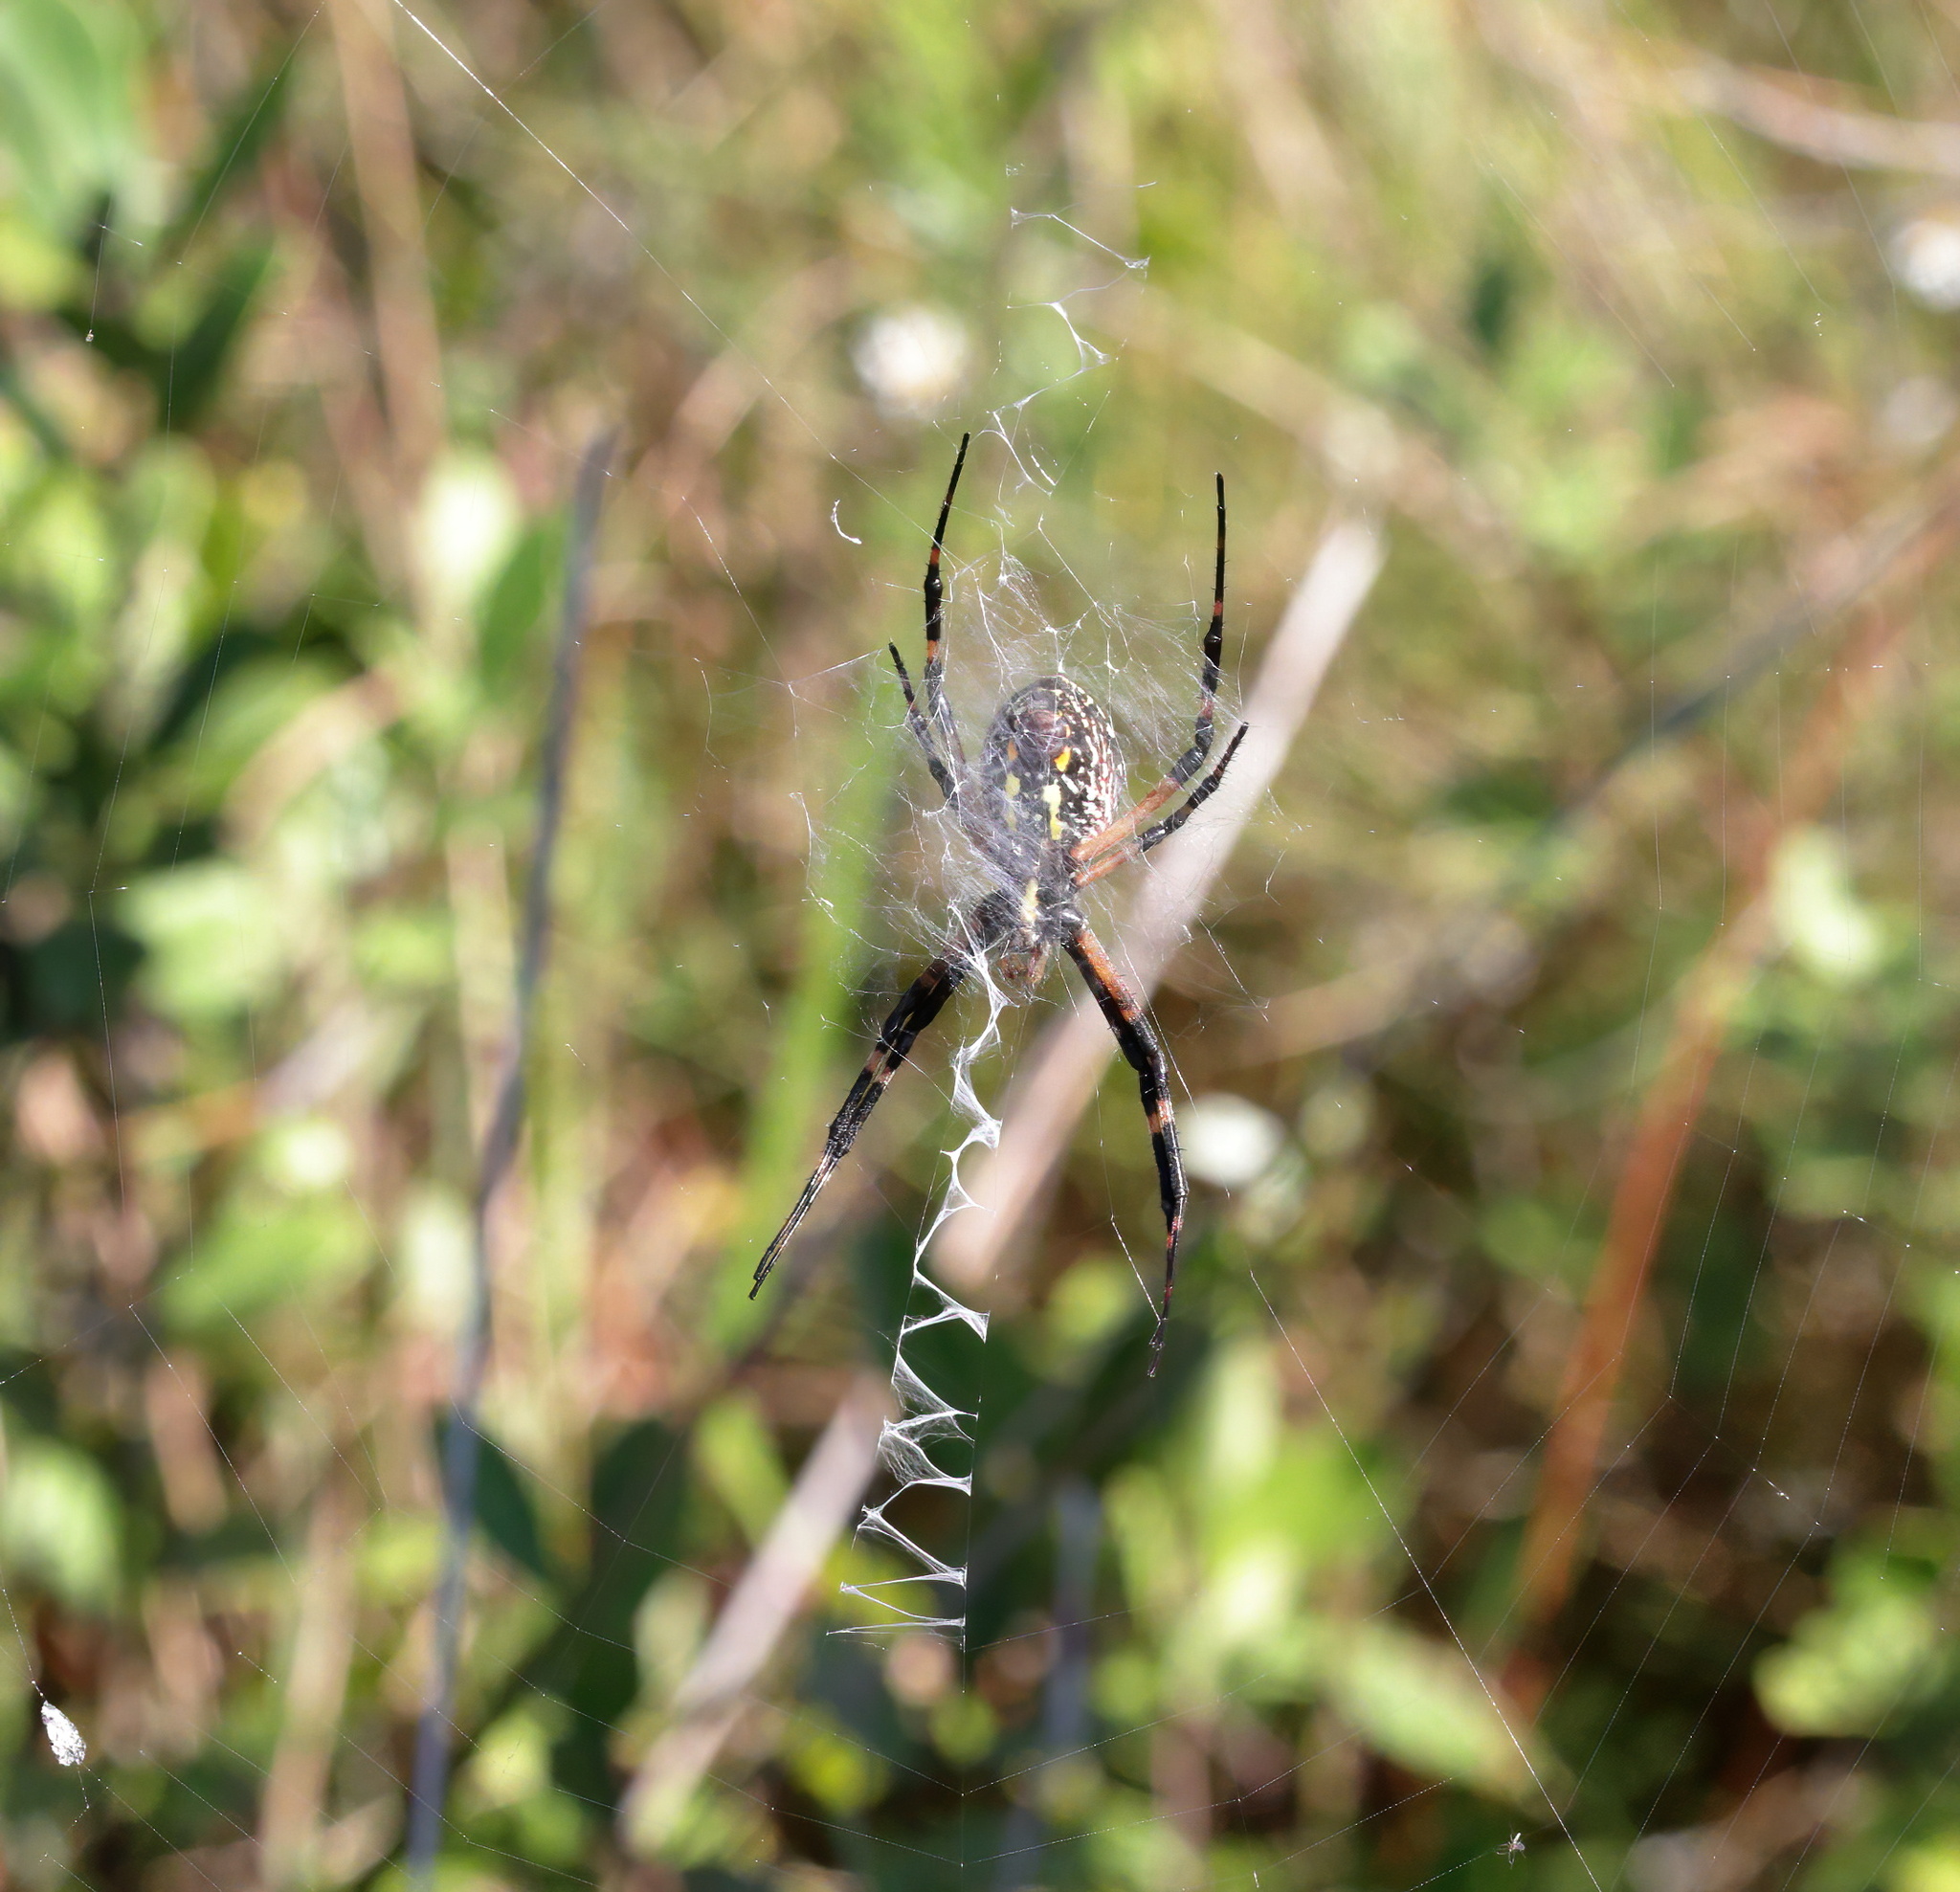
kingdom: Animalia
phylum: Arthropoda
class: Arachnida
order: Araneae
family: Araneidae
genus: Argiope
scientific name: Argiope aurantia
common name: Orb weavers
